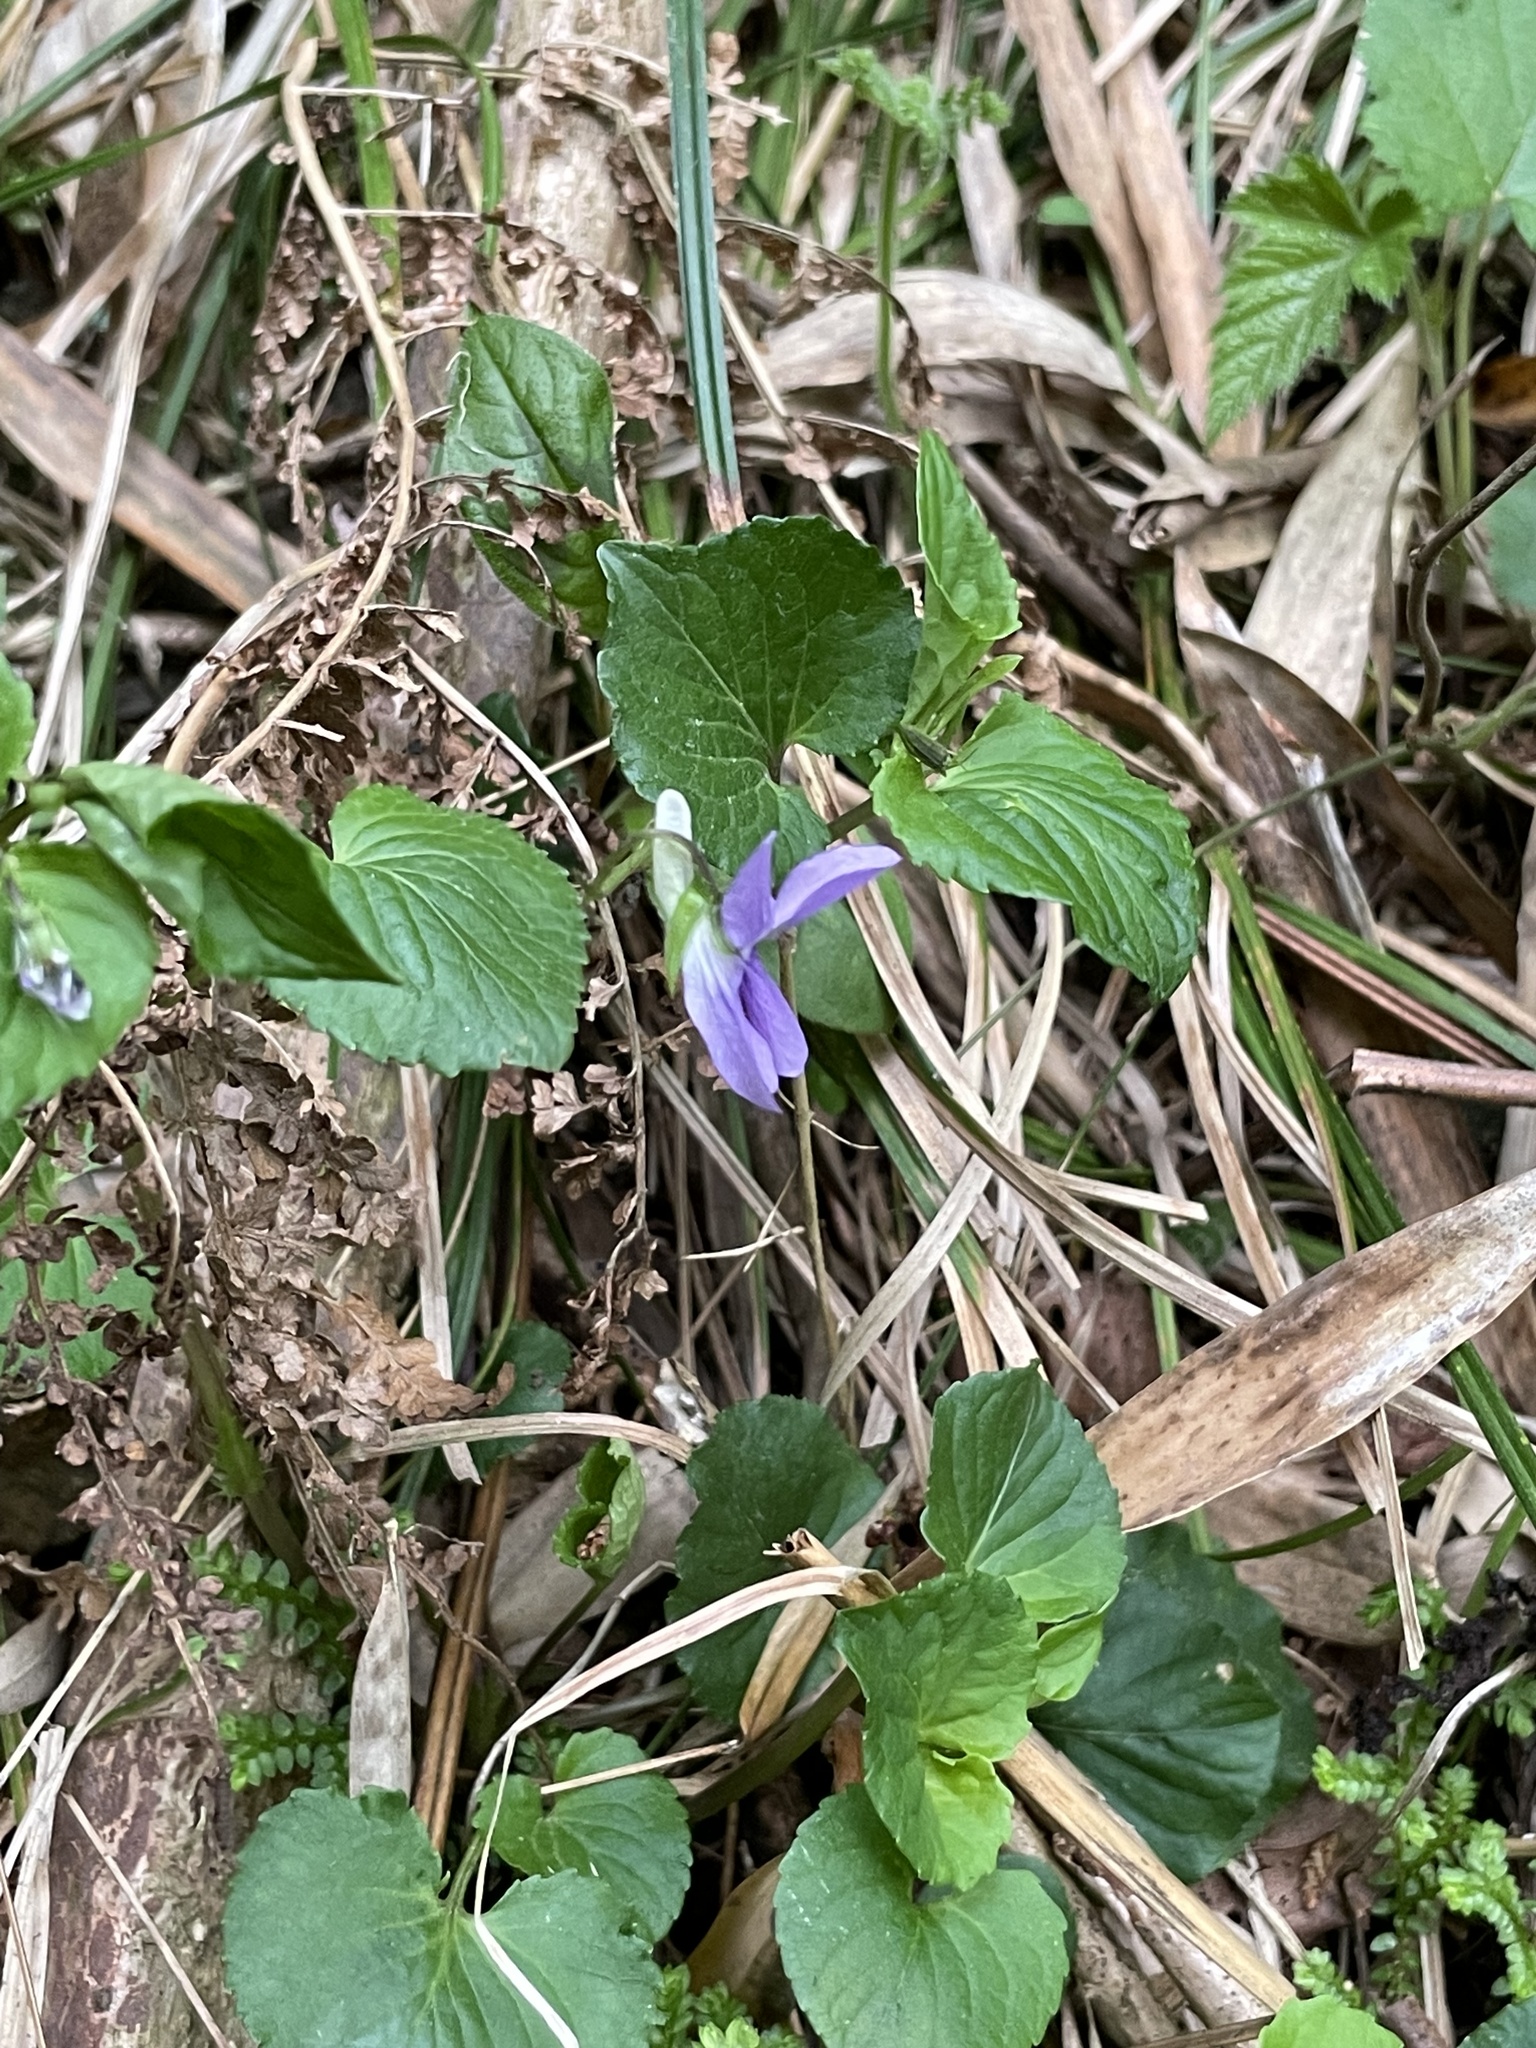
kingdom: Plantae
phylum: Tracheophyta
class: Magnoliopsida
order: Malpighiales
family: Violaceae
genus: Viola
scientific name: Viola kusanoana
